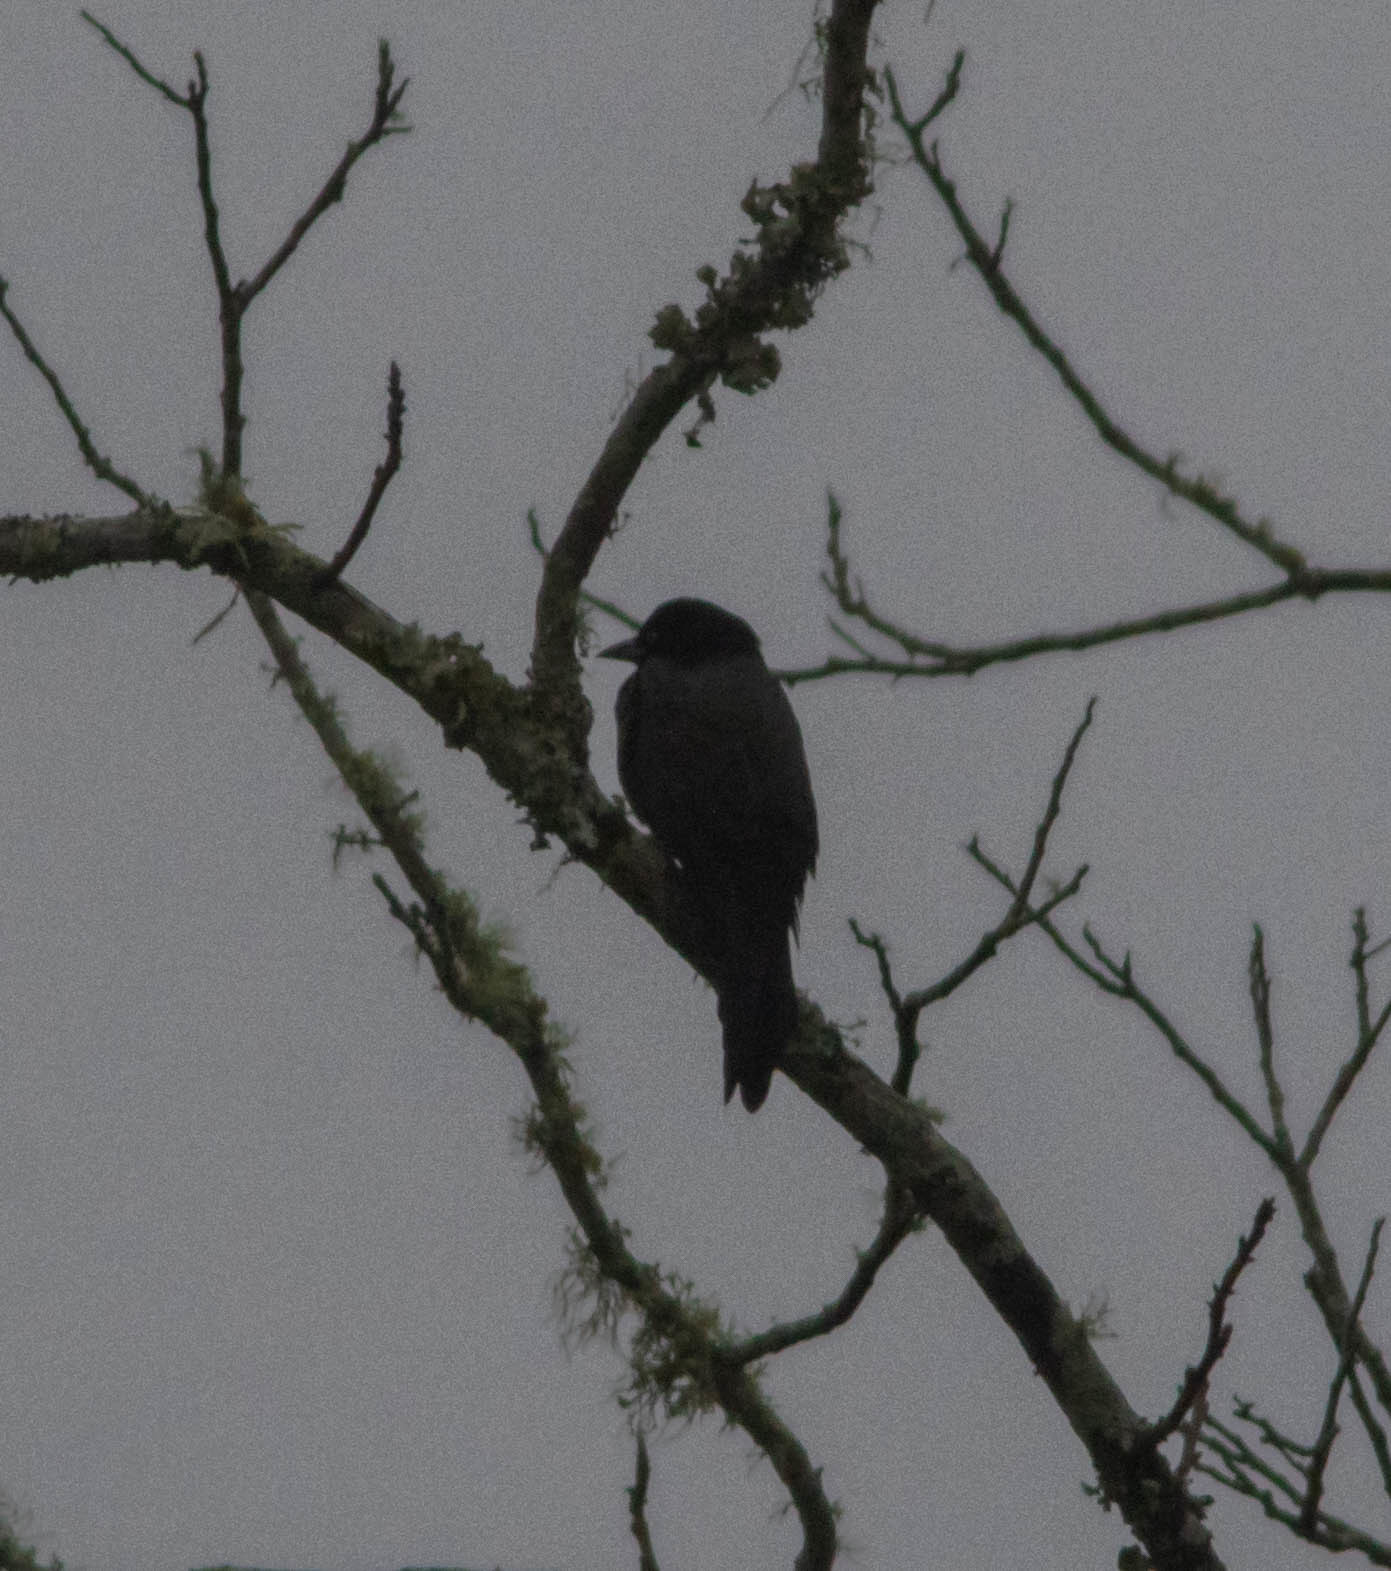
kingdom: Animalia
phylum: Chordata
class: Aves
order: Passeriformes
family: Icteridae
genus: Quiscalus
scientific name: Quiscalus quiscula
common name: Common grackle
